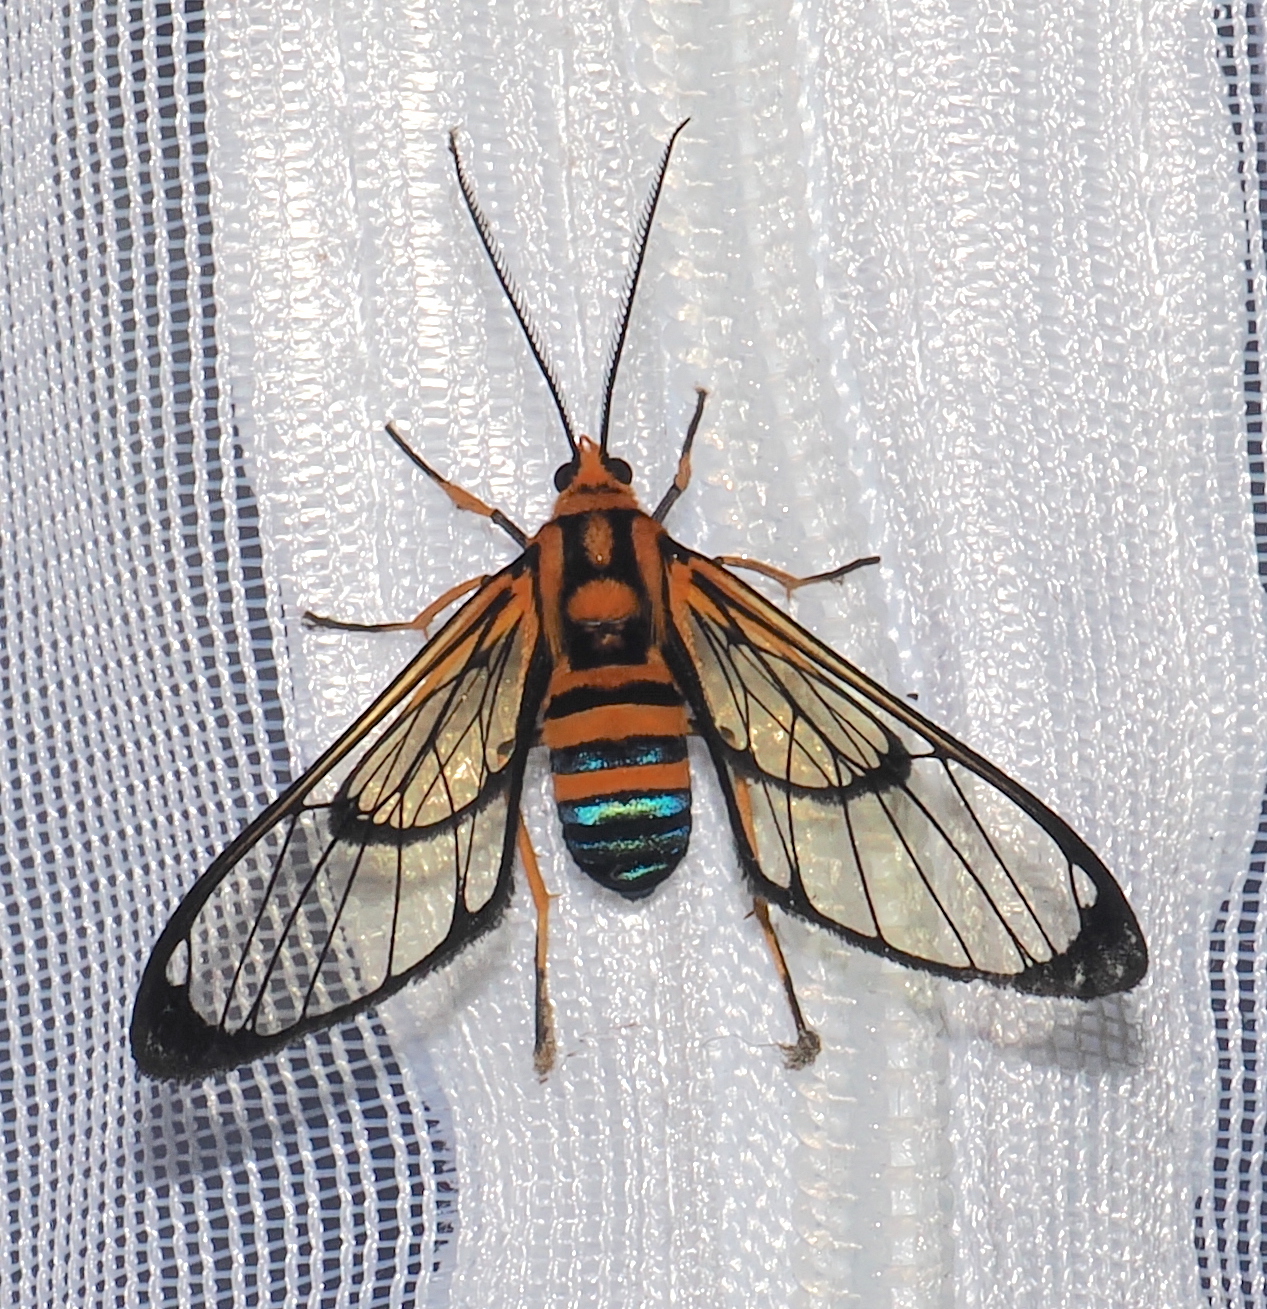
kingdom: Animalia
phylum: Arthropoda
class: Insecta
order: Lepidoptera
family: Erebidae
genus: Mesothen
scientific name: Mesothen nomia
